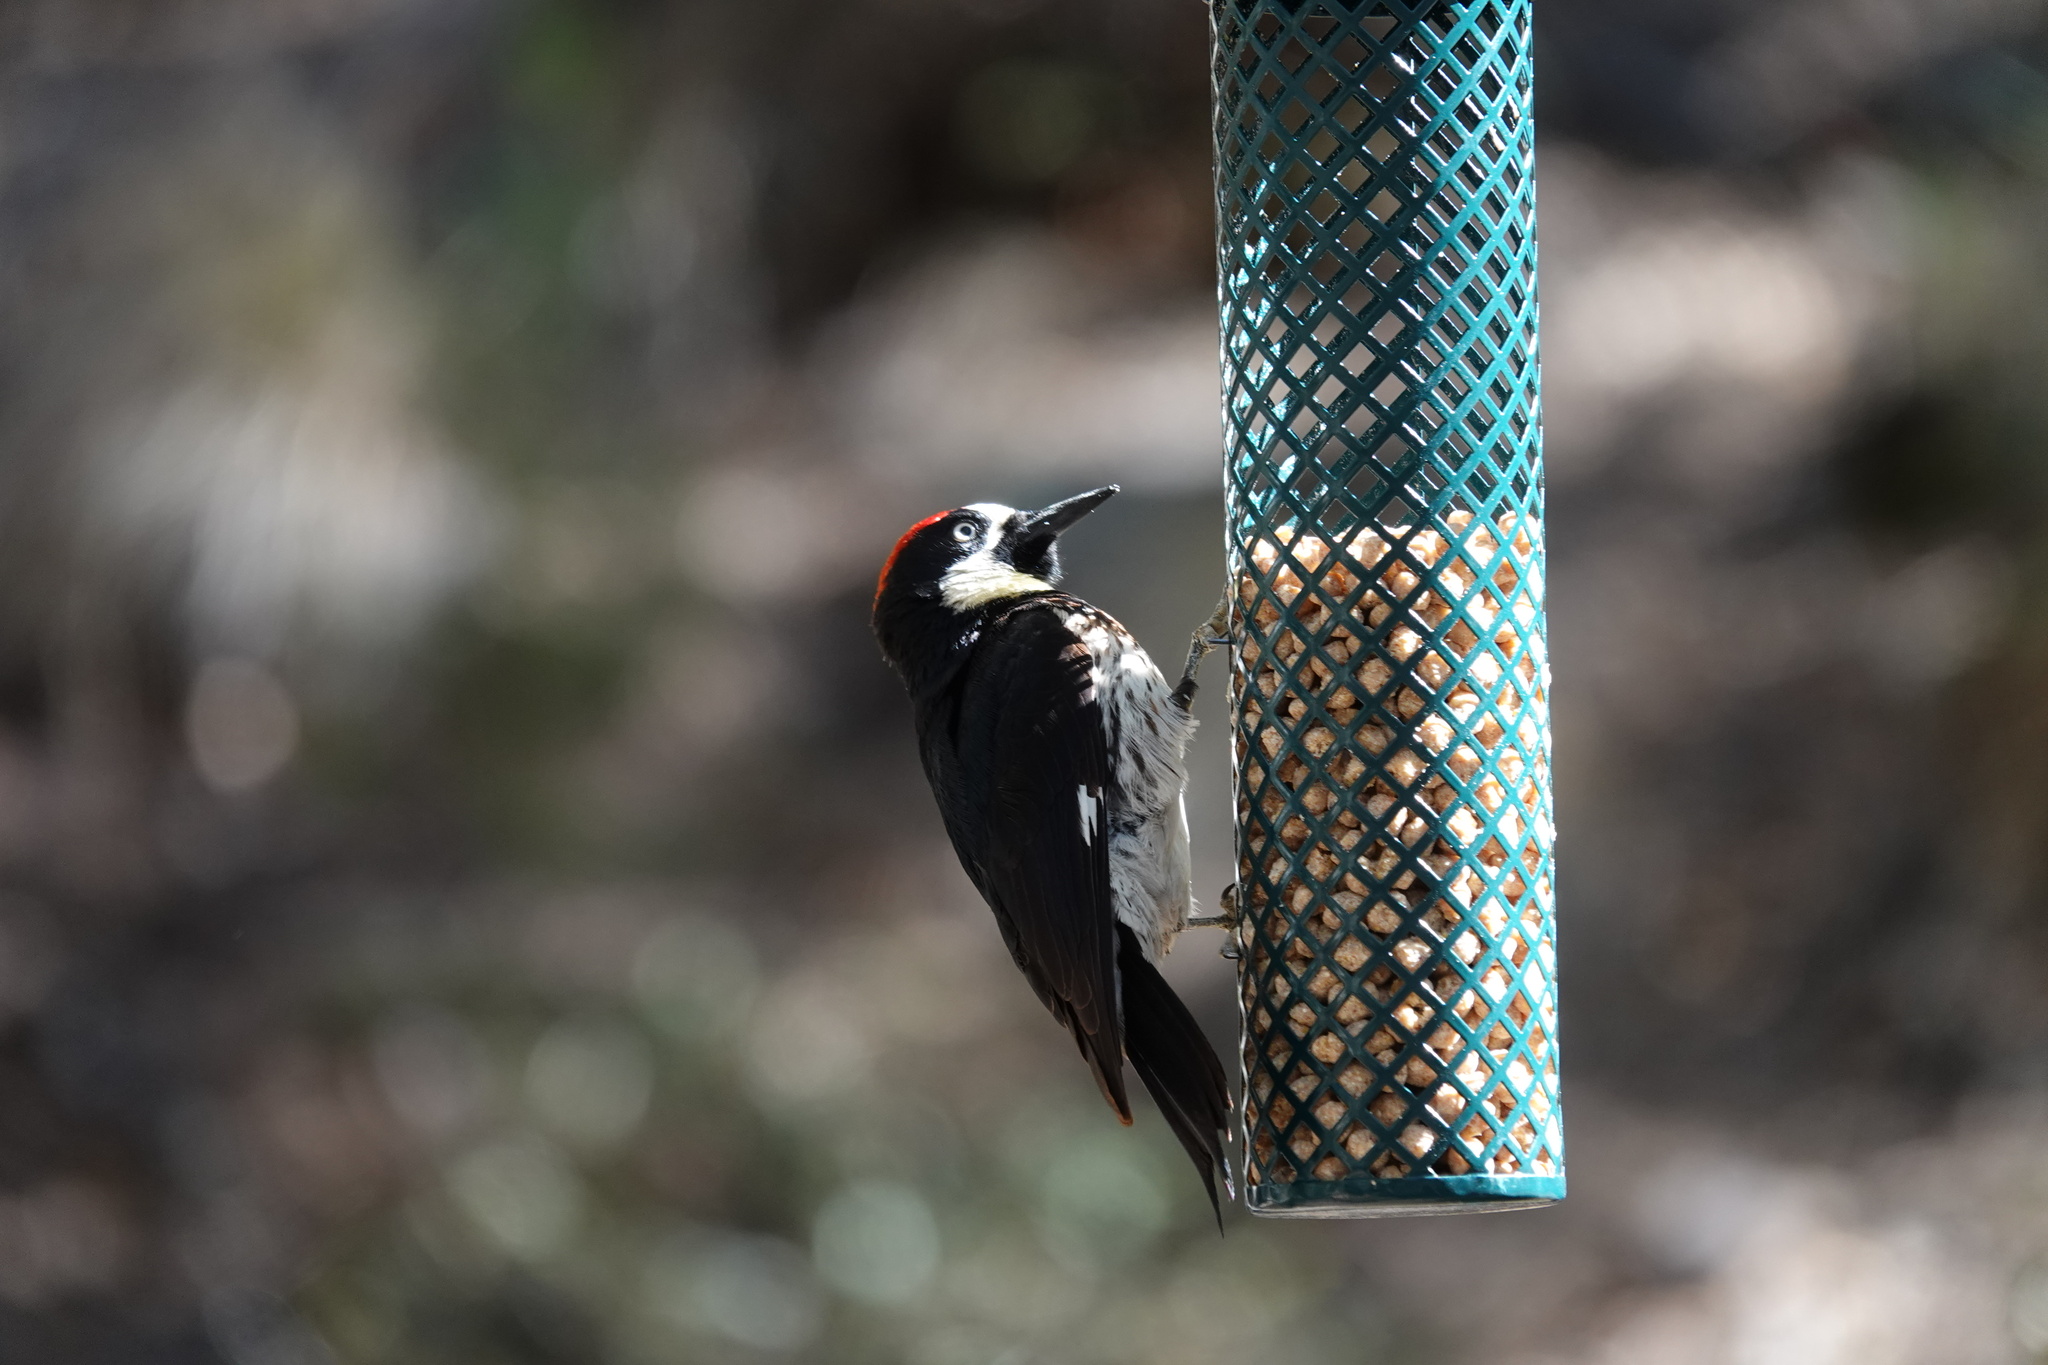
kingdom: Animalia
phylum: Chordata
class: Aves
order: Piciformes
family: Picidae
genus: Melanerpes
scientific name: Melanerpes formicivorus
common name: Acorn woodpecker
